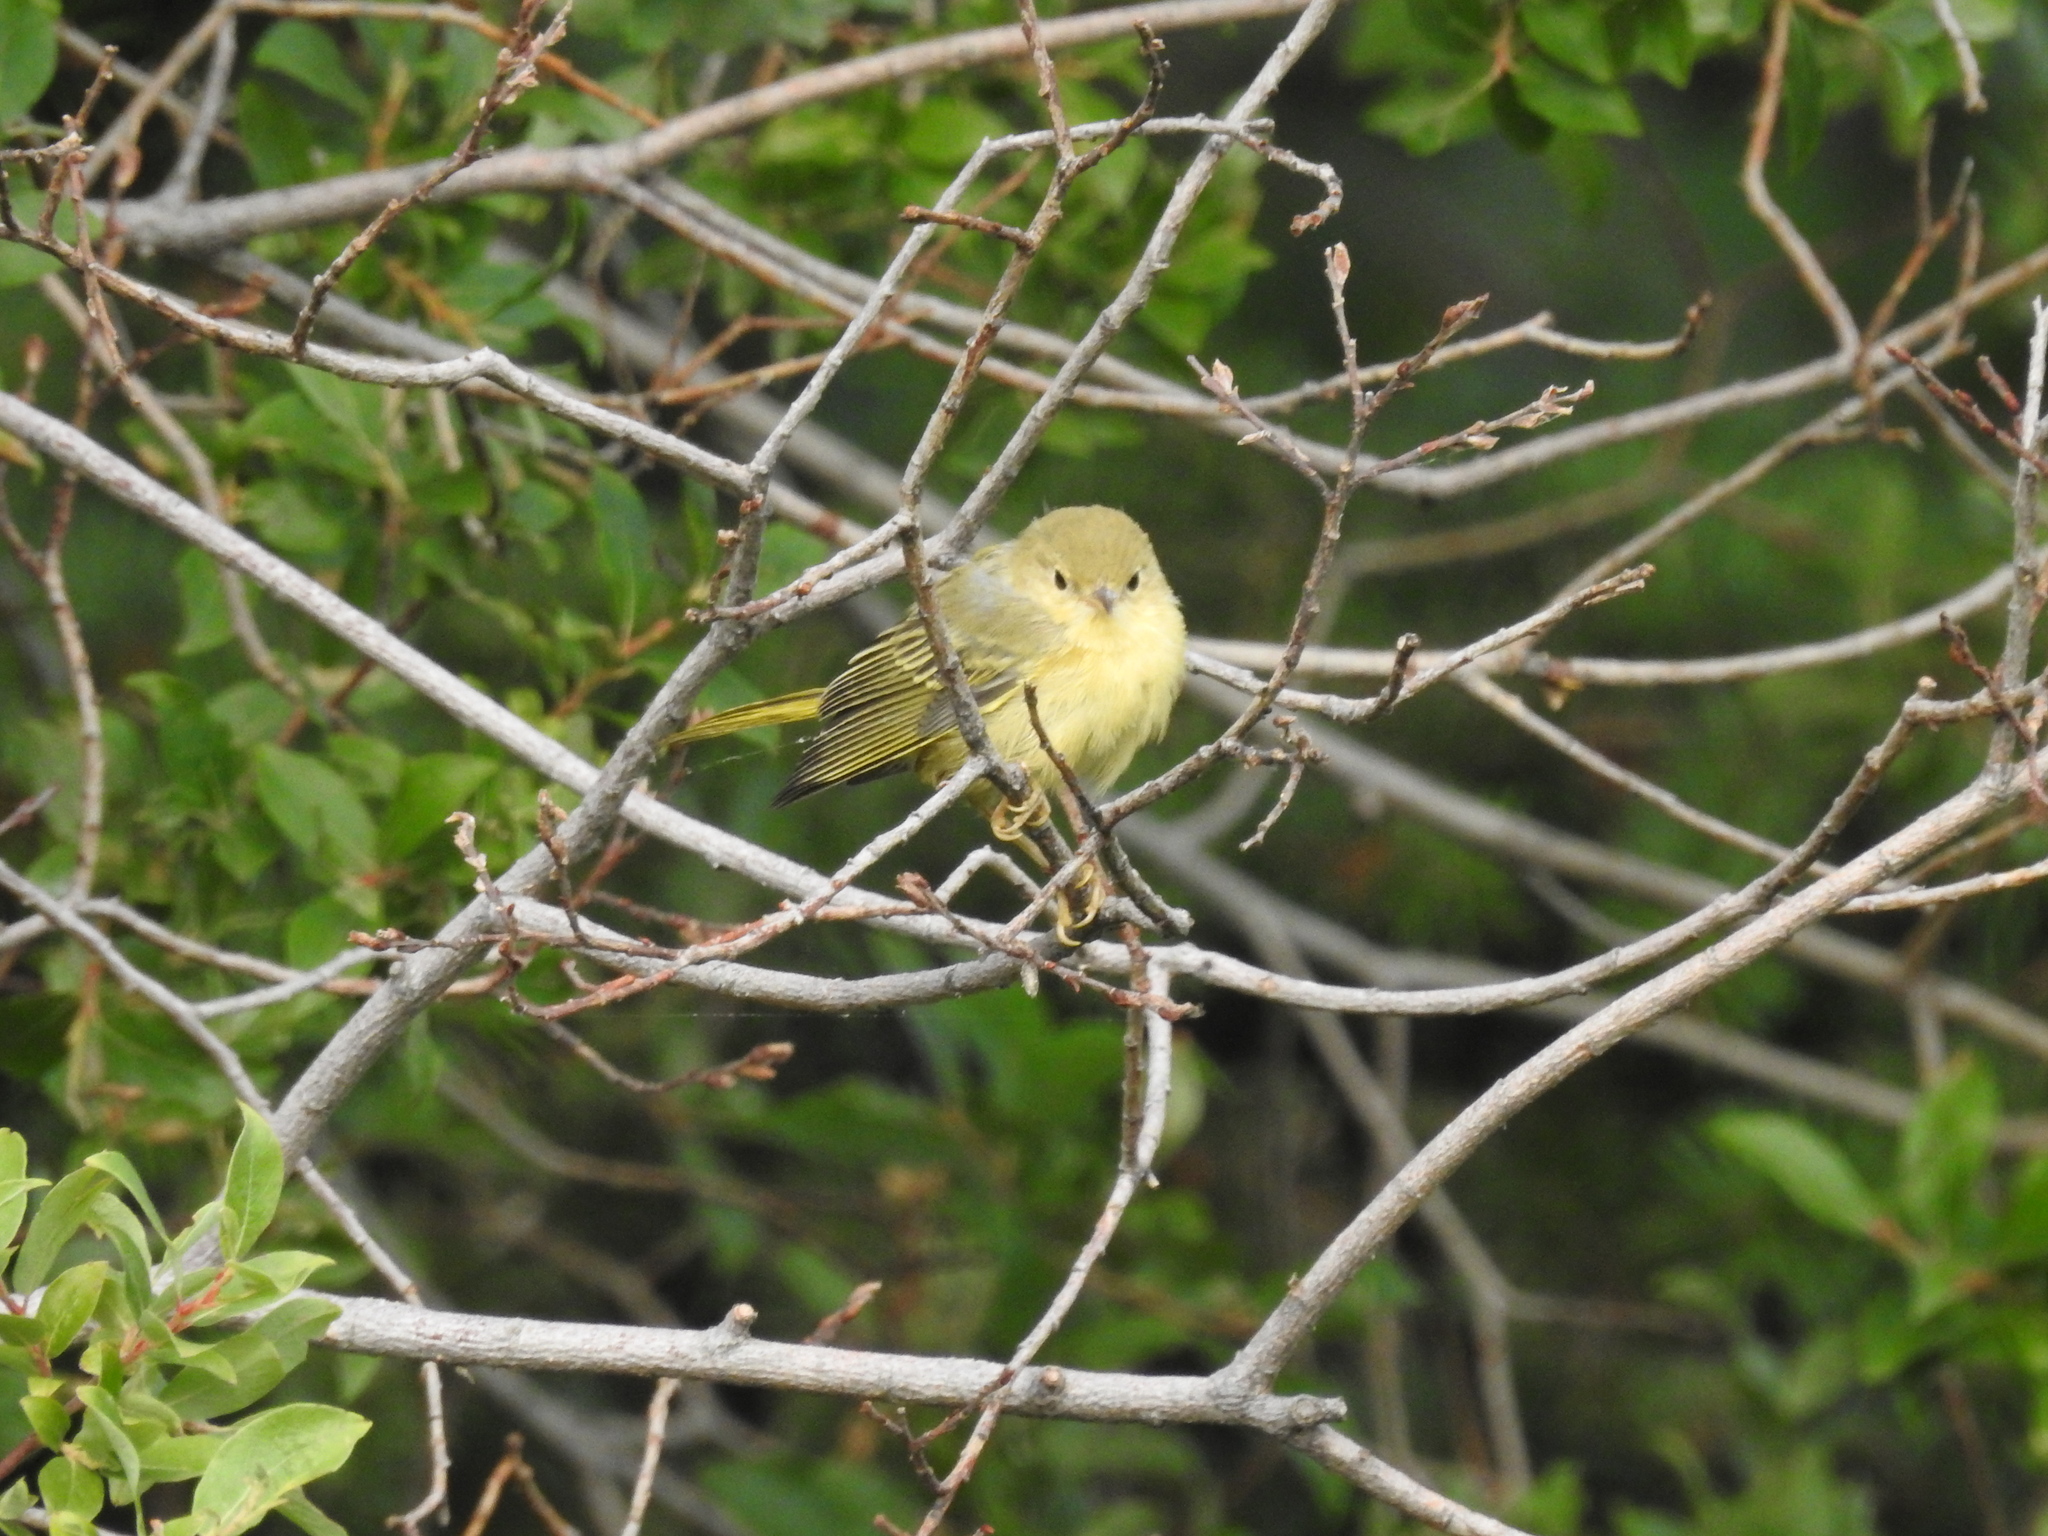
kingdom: Animalia
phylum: Chordata
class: Aves
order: Passeriformes
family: Parulidae
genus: Setophaga
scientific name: Setophaga petechia
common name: Yellow warbler
